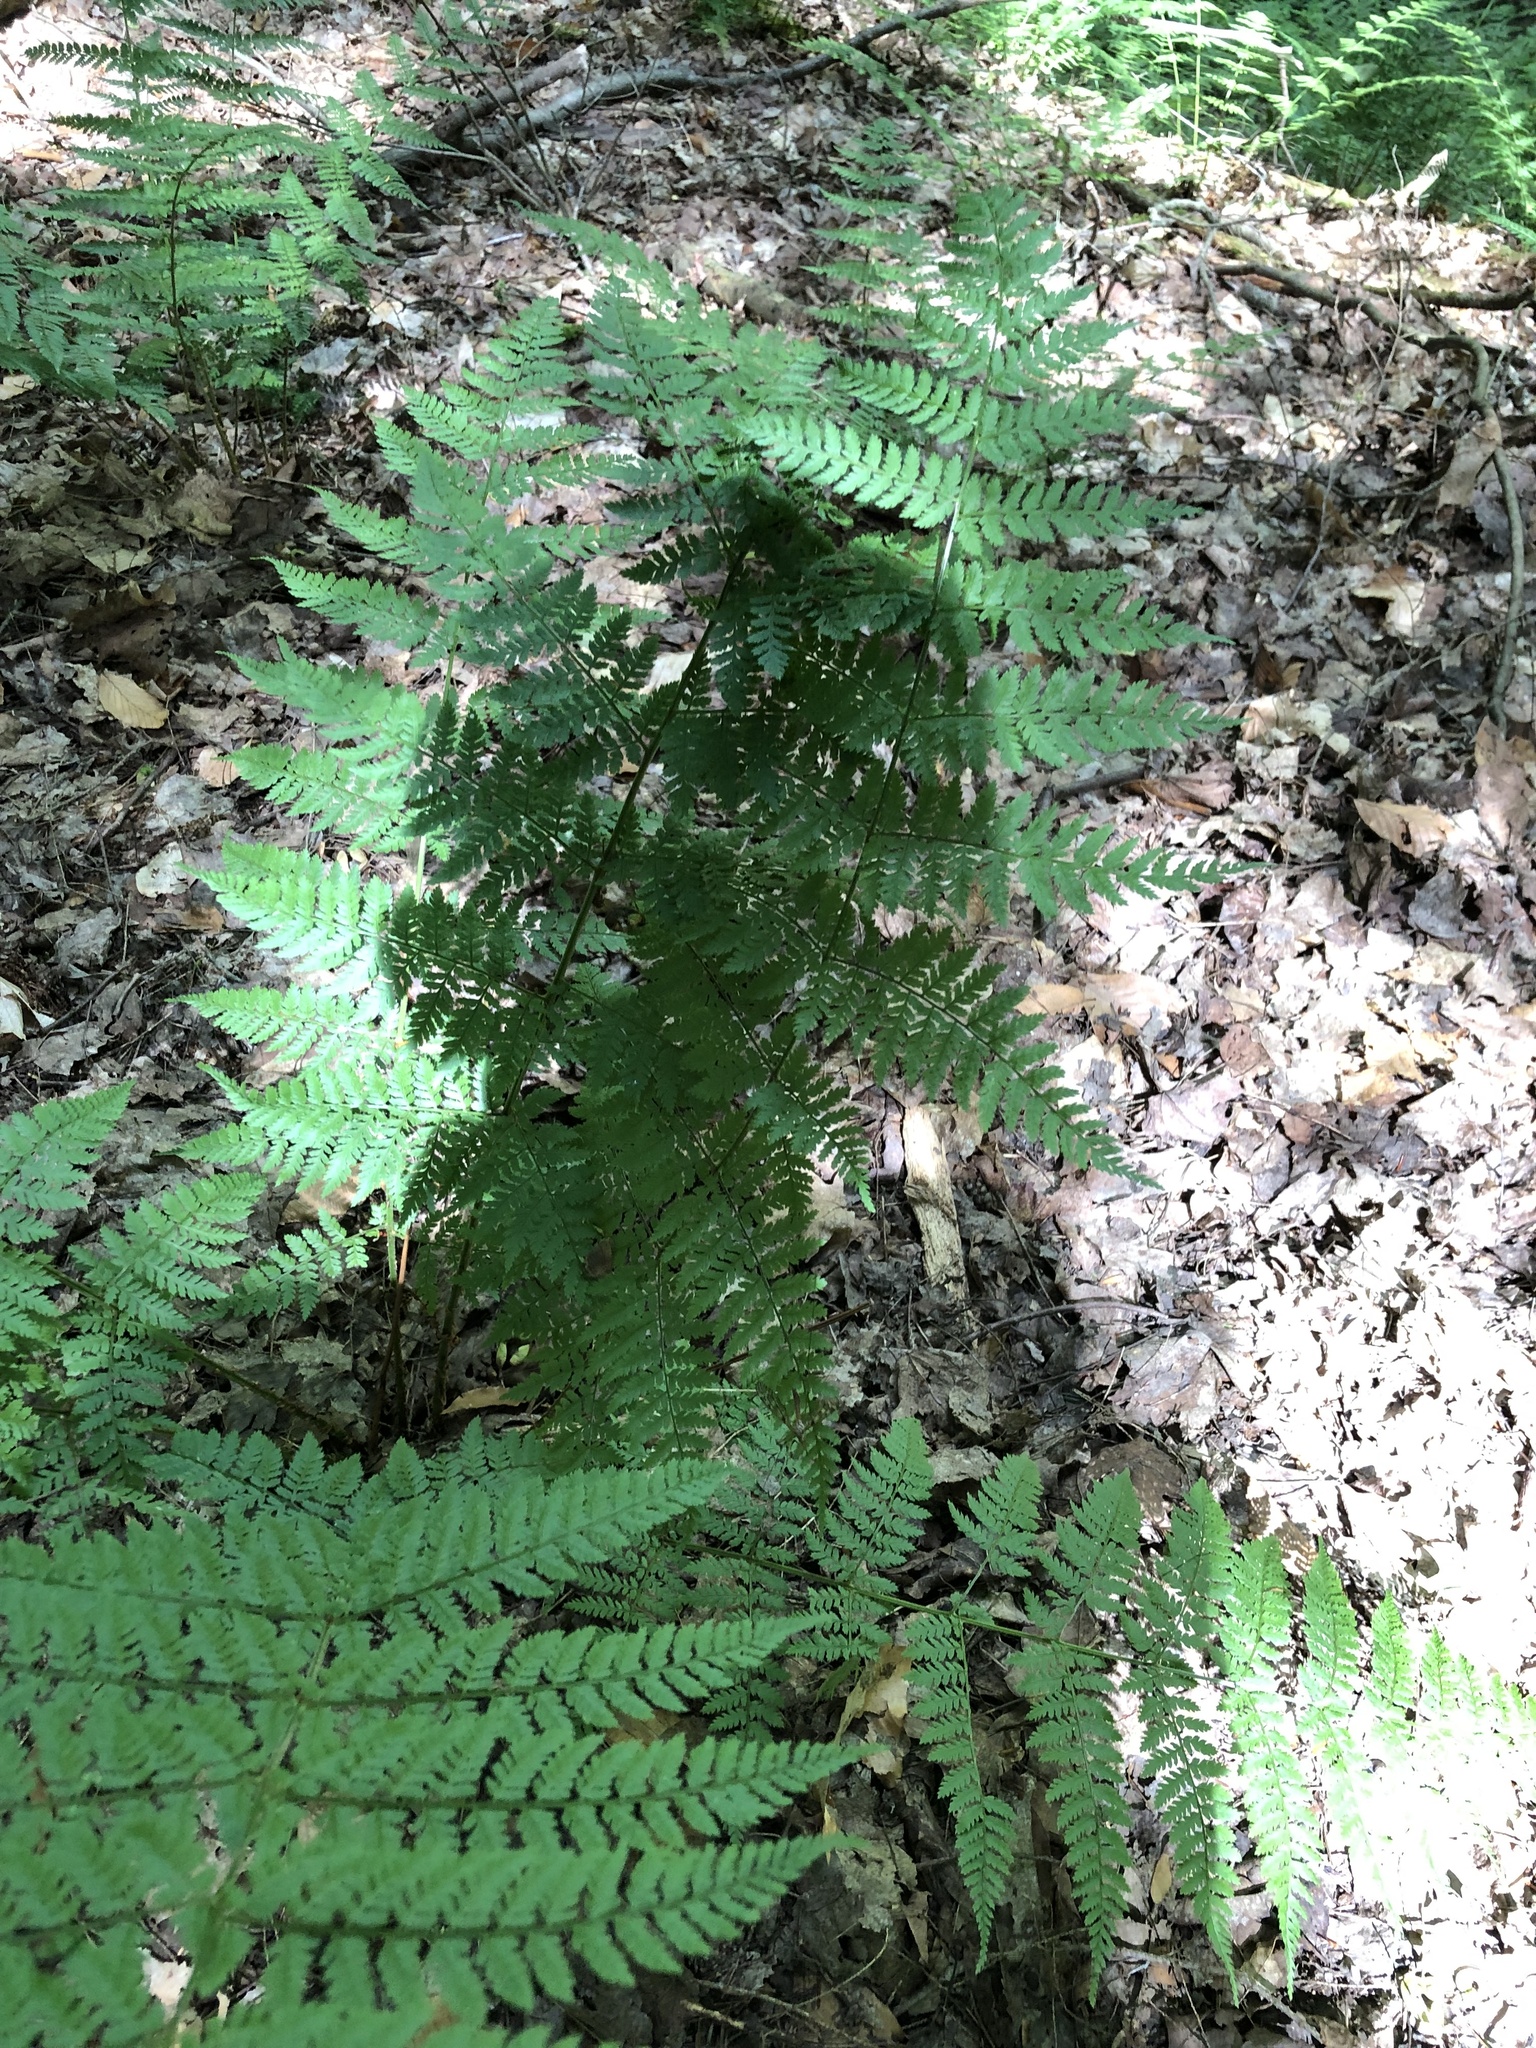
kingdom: Plantae
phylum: Tracheophyta
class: Polypodiopsida
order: Polypodiales
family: Dryopteridaceae
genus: Dryopteris
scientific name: Dryopteris intermedia
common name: Evergreen wood fern
